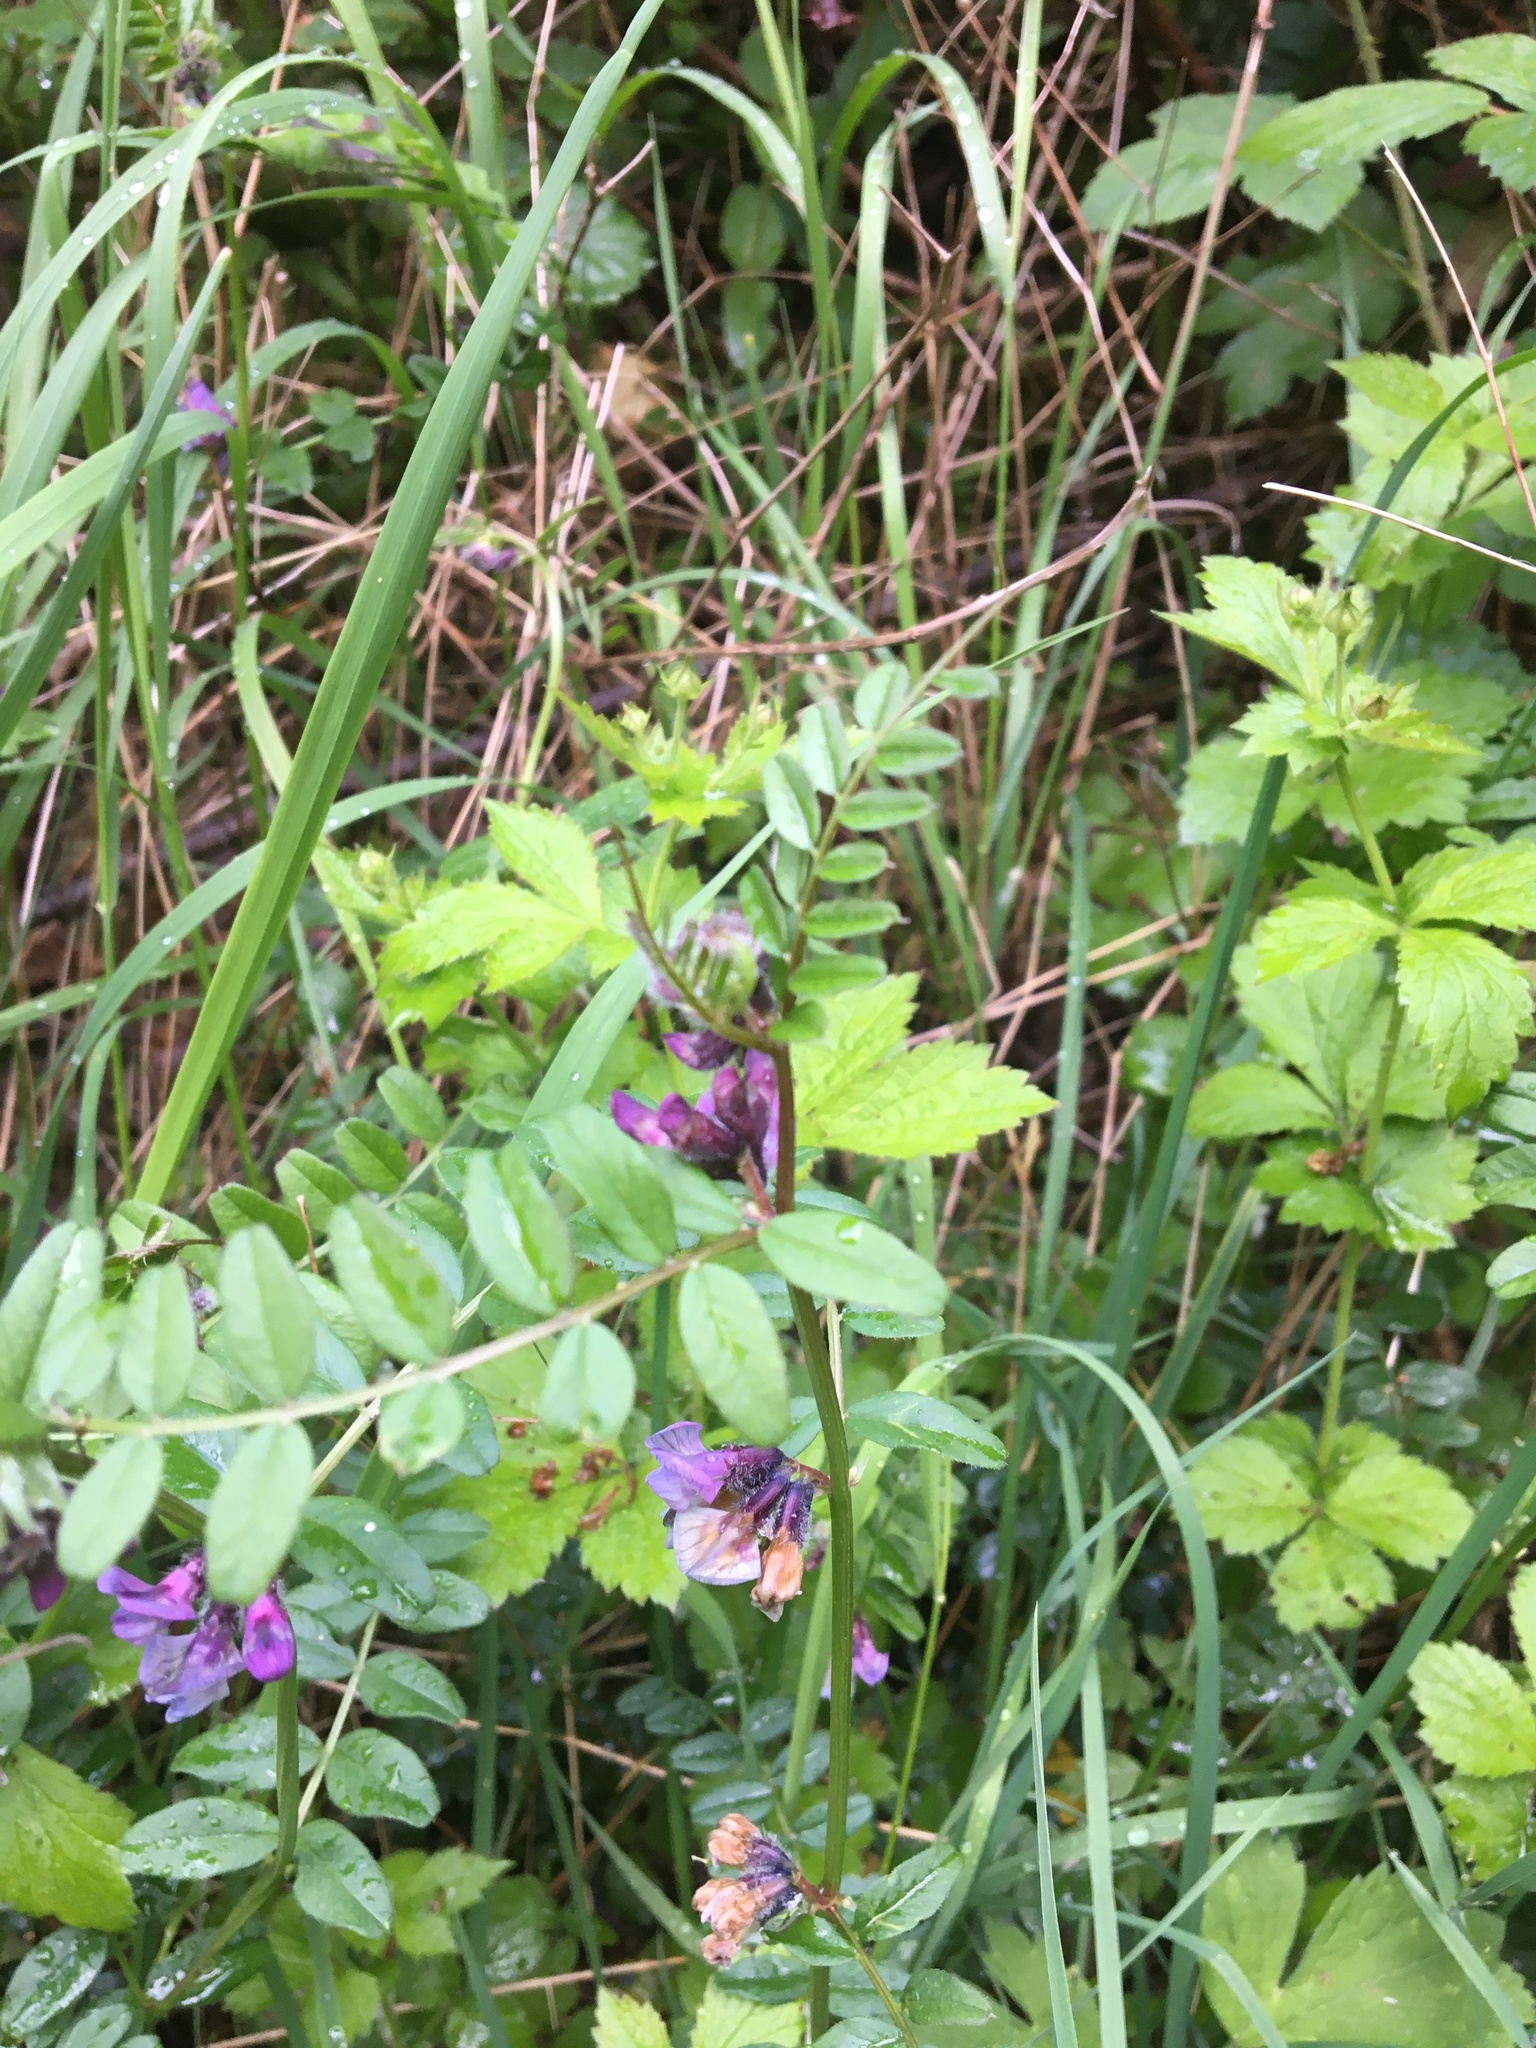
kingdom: Plantae
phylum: Tracheophyta
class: Magnoliopsida
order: Fabales
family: Fabaceae
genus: Vicia
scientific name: Vicia sepium
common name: Bush vetch
